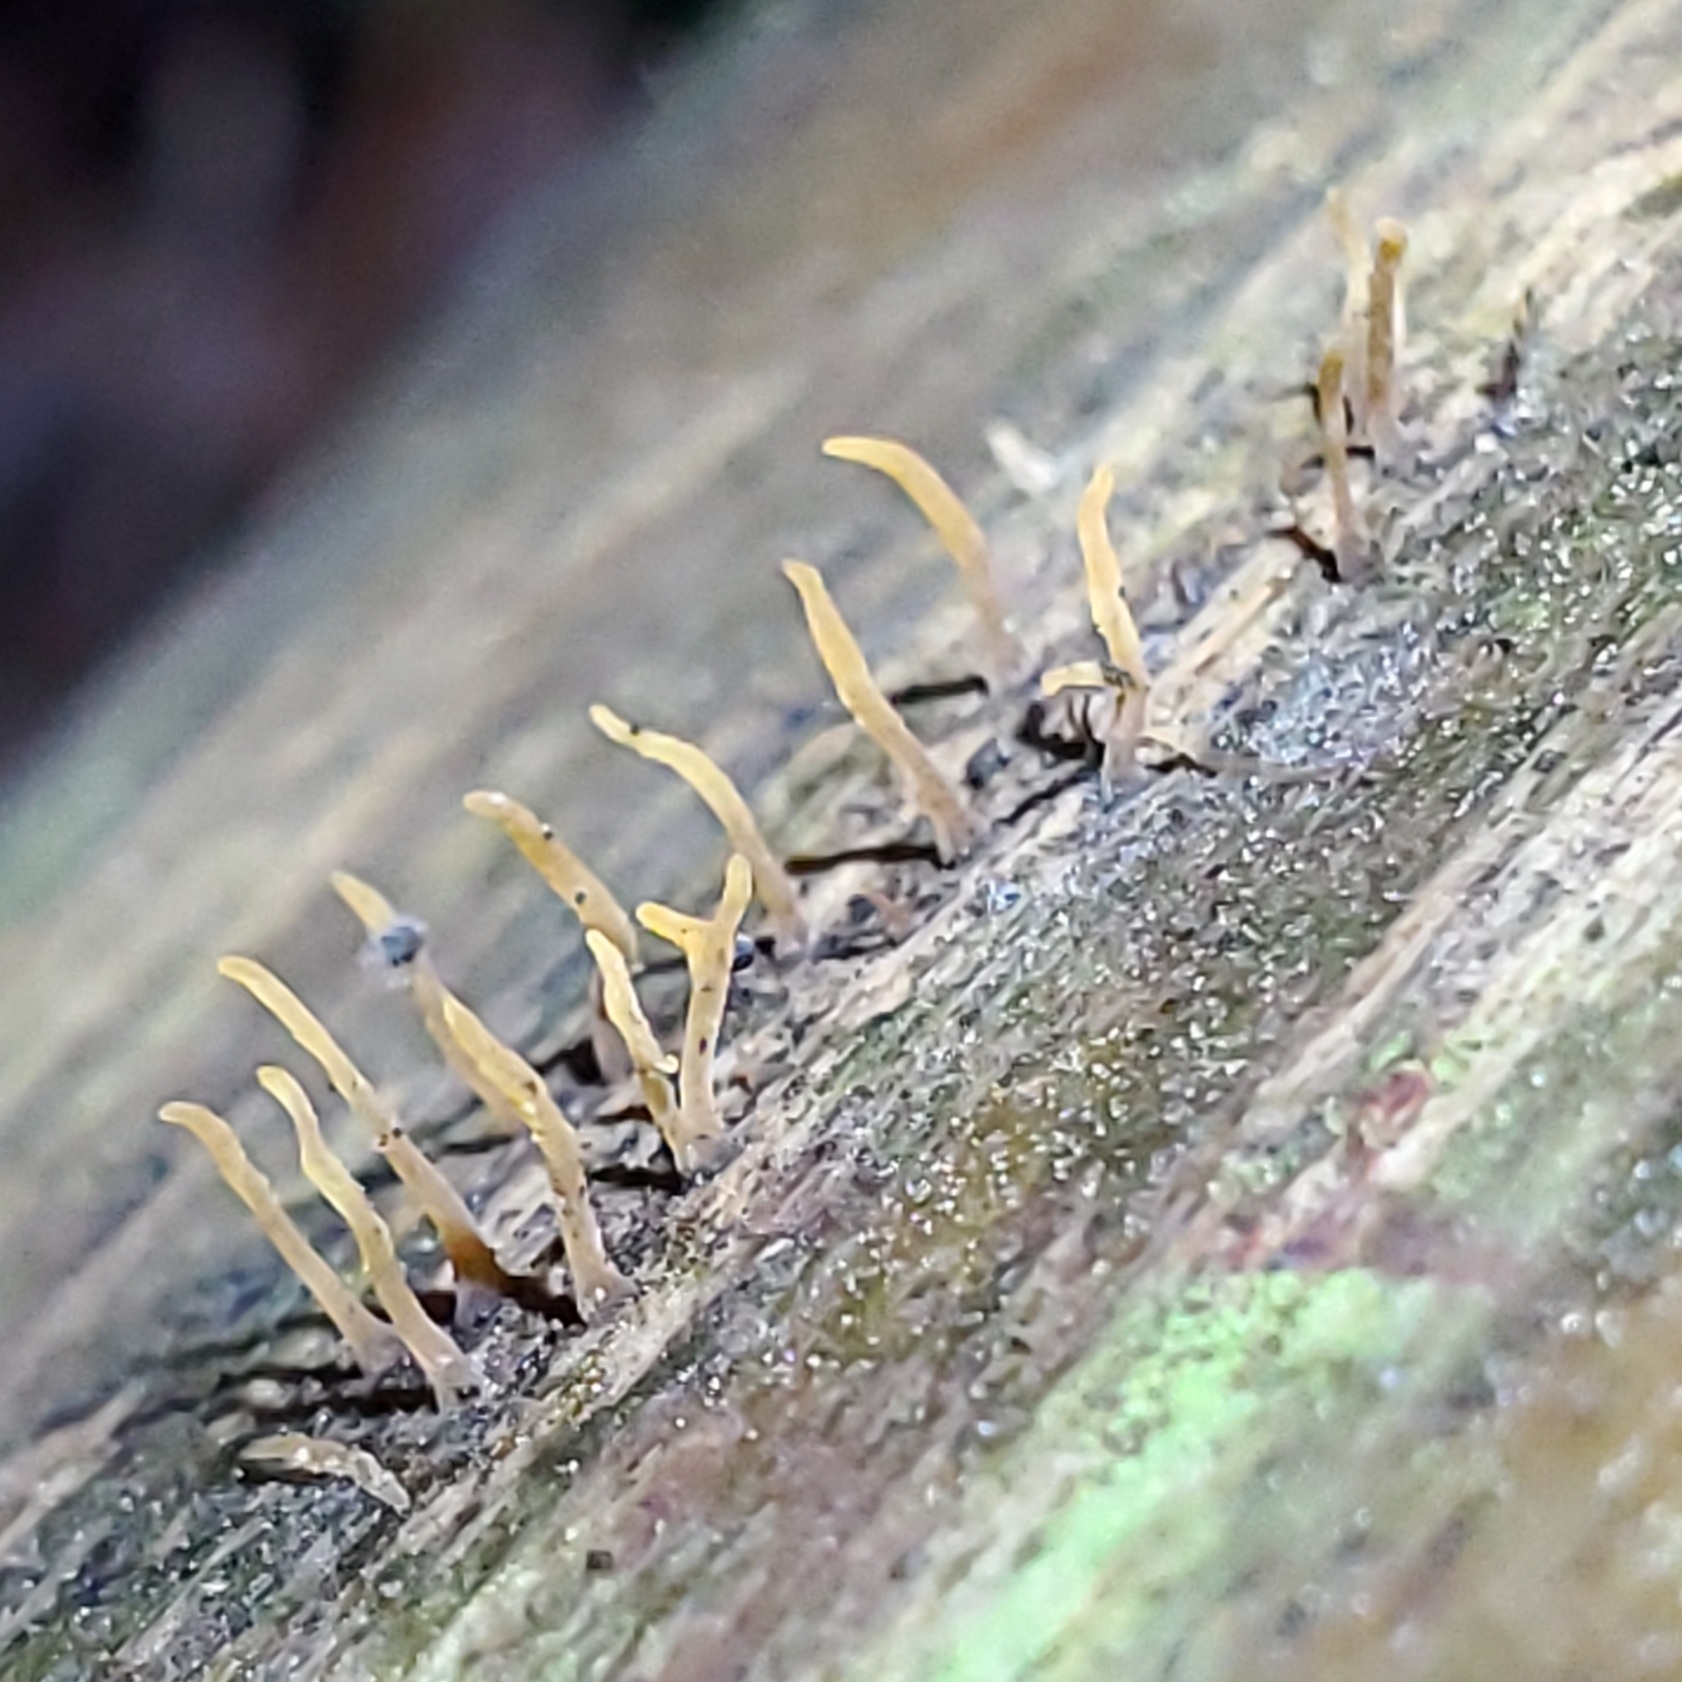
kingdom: Fungi
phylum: Basidiomycota
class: Dacrymycetes
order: Dacrymycetales
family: Dacrymycetaceae
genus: Calocera
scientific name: Calocera cornea
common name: Small stagshorn
